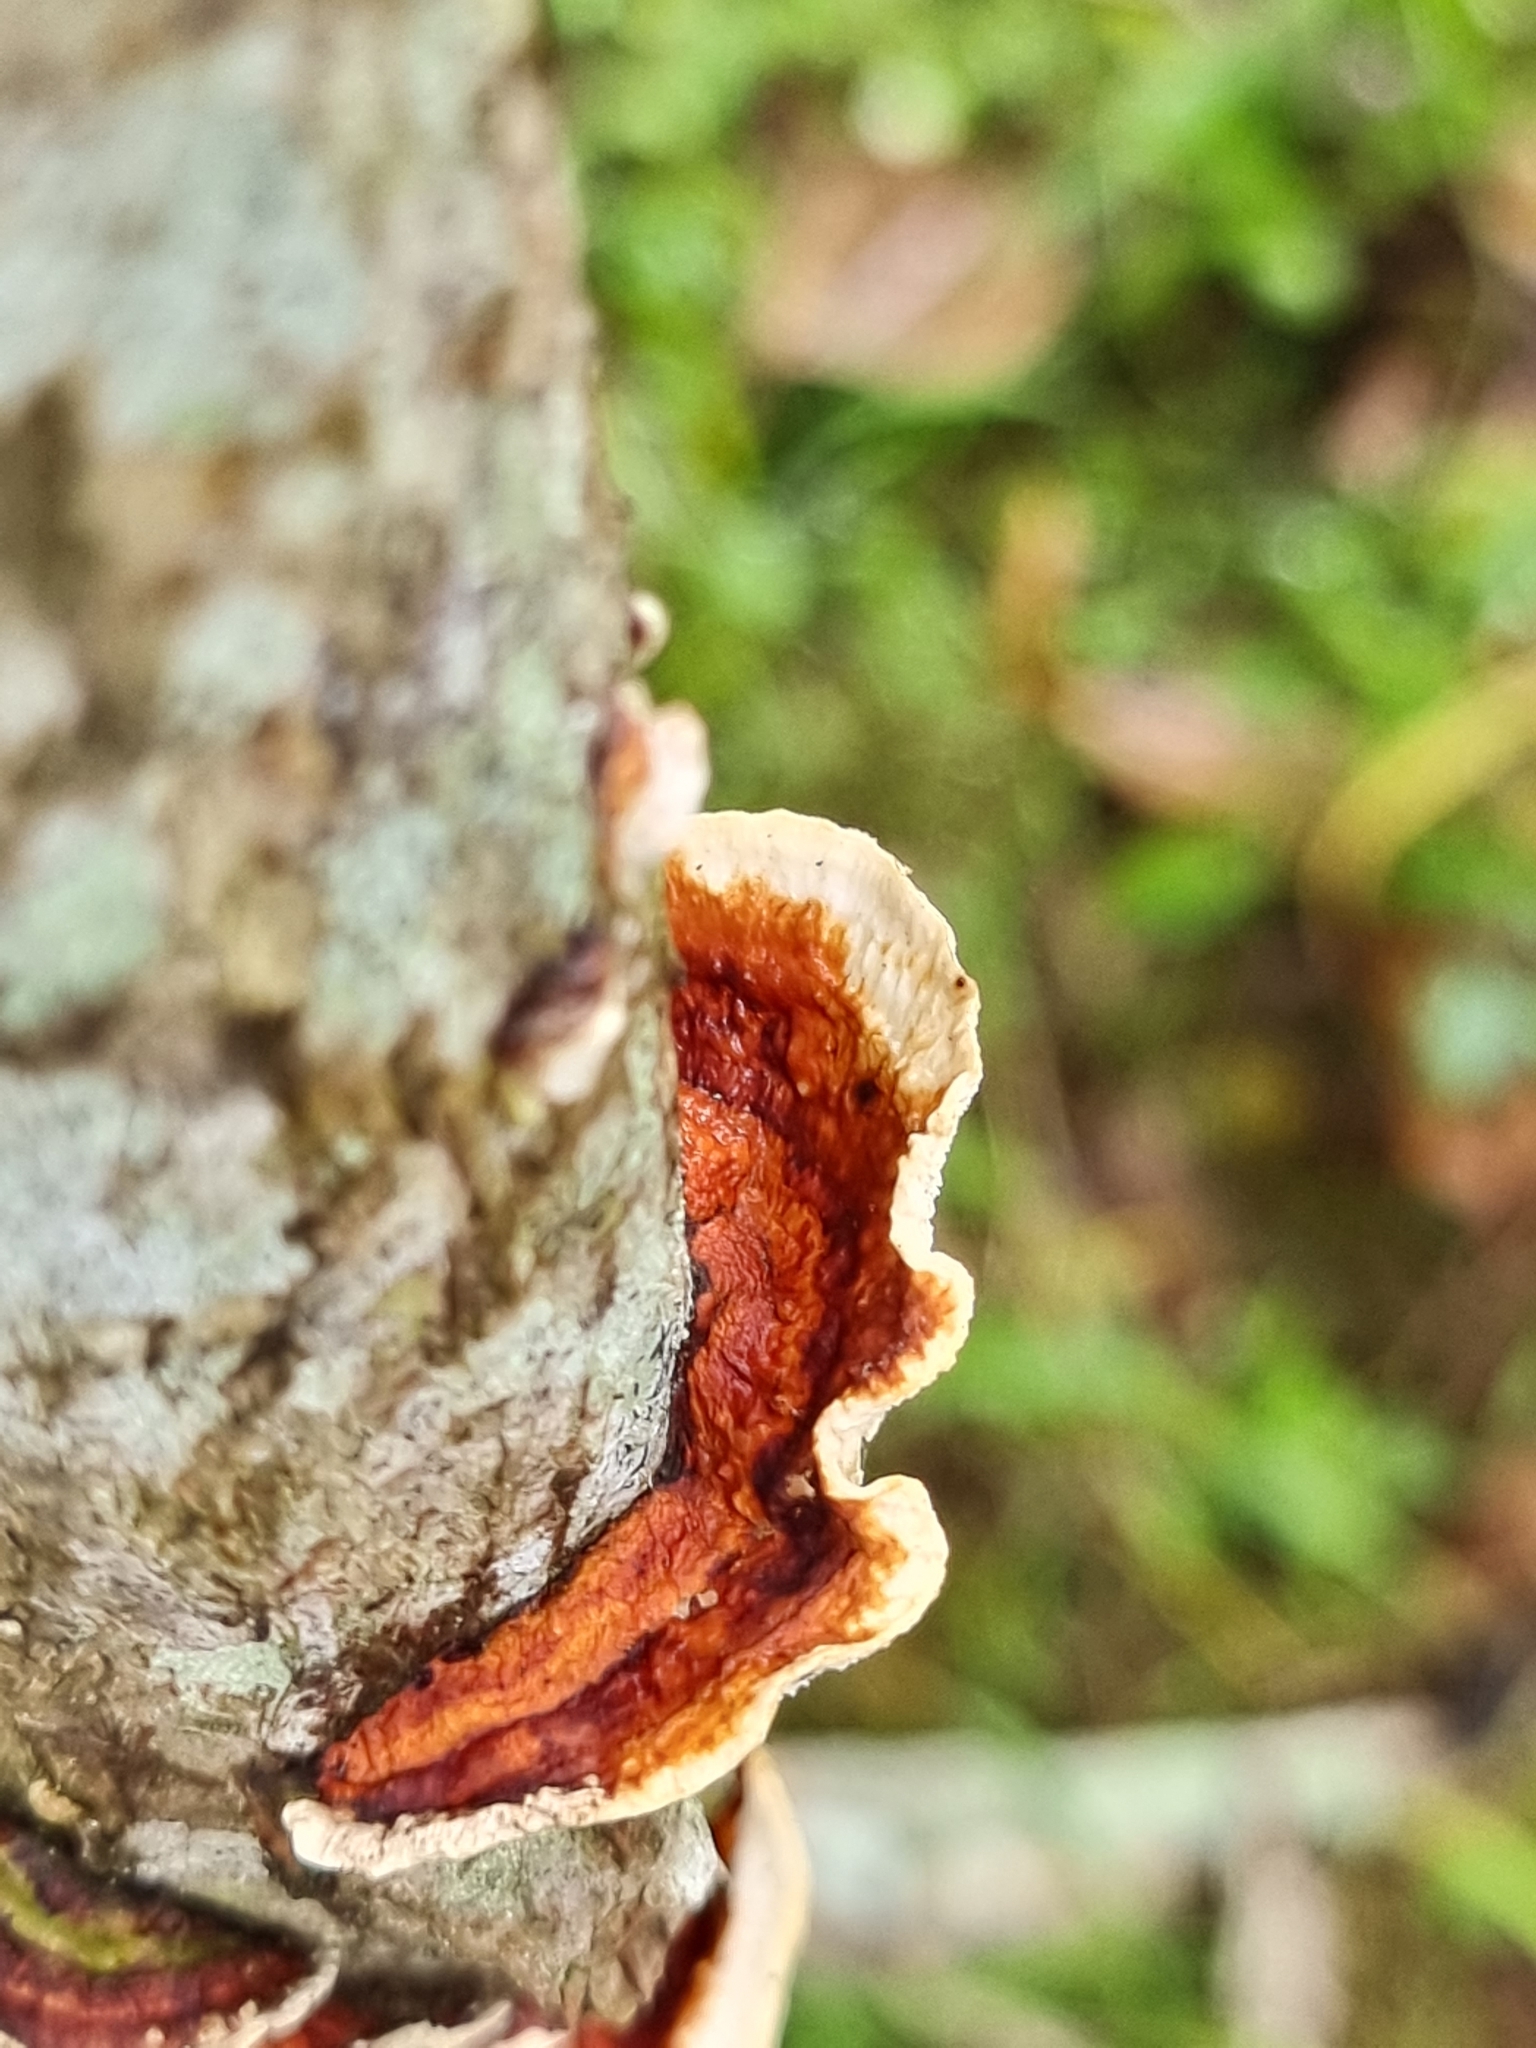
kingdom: Fungi
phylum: Basidiomycota
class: Agaricomycetes
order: Polyporales
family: Polyporaceae
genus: Earliella
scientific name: Earliella scabrosa
